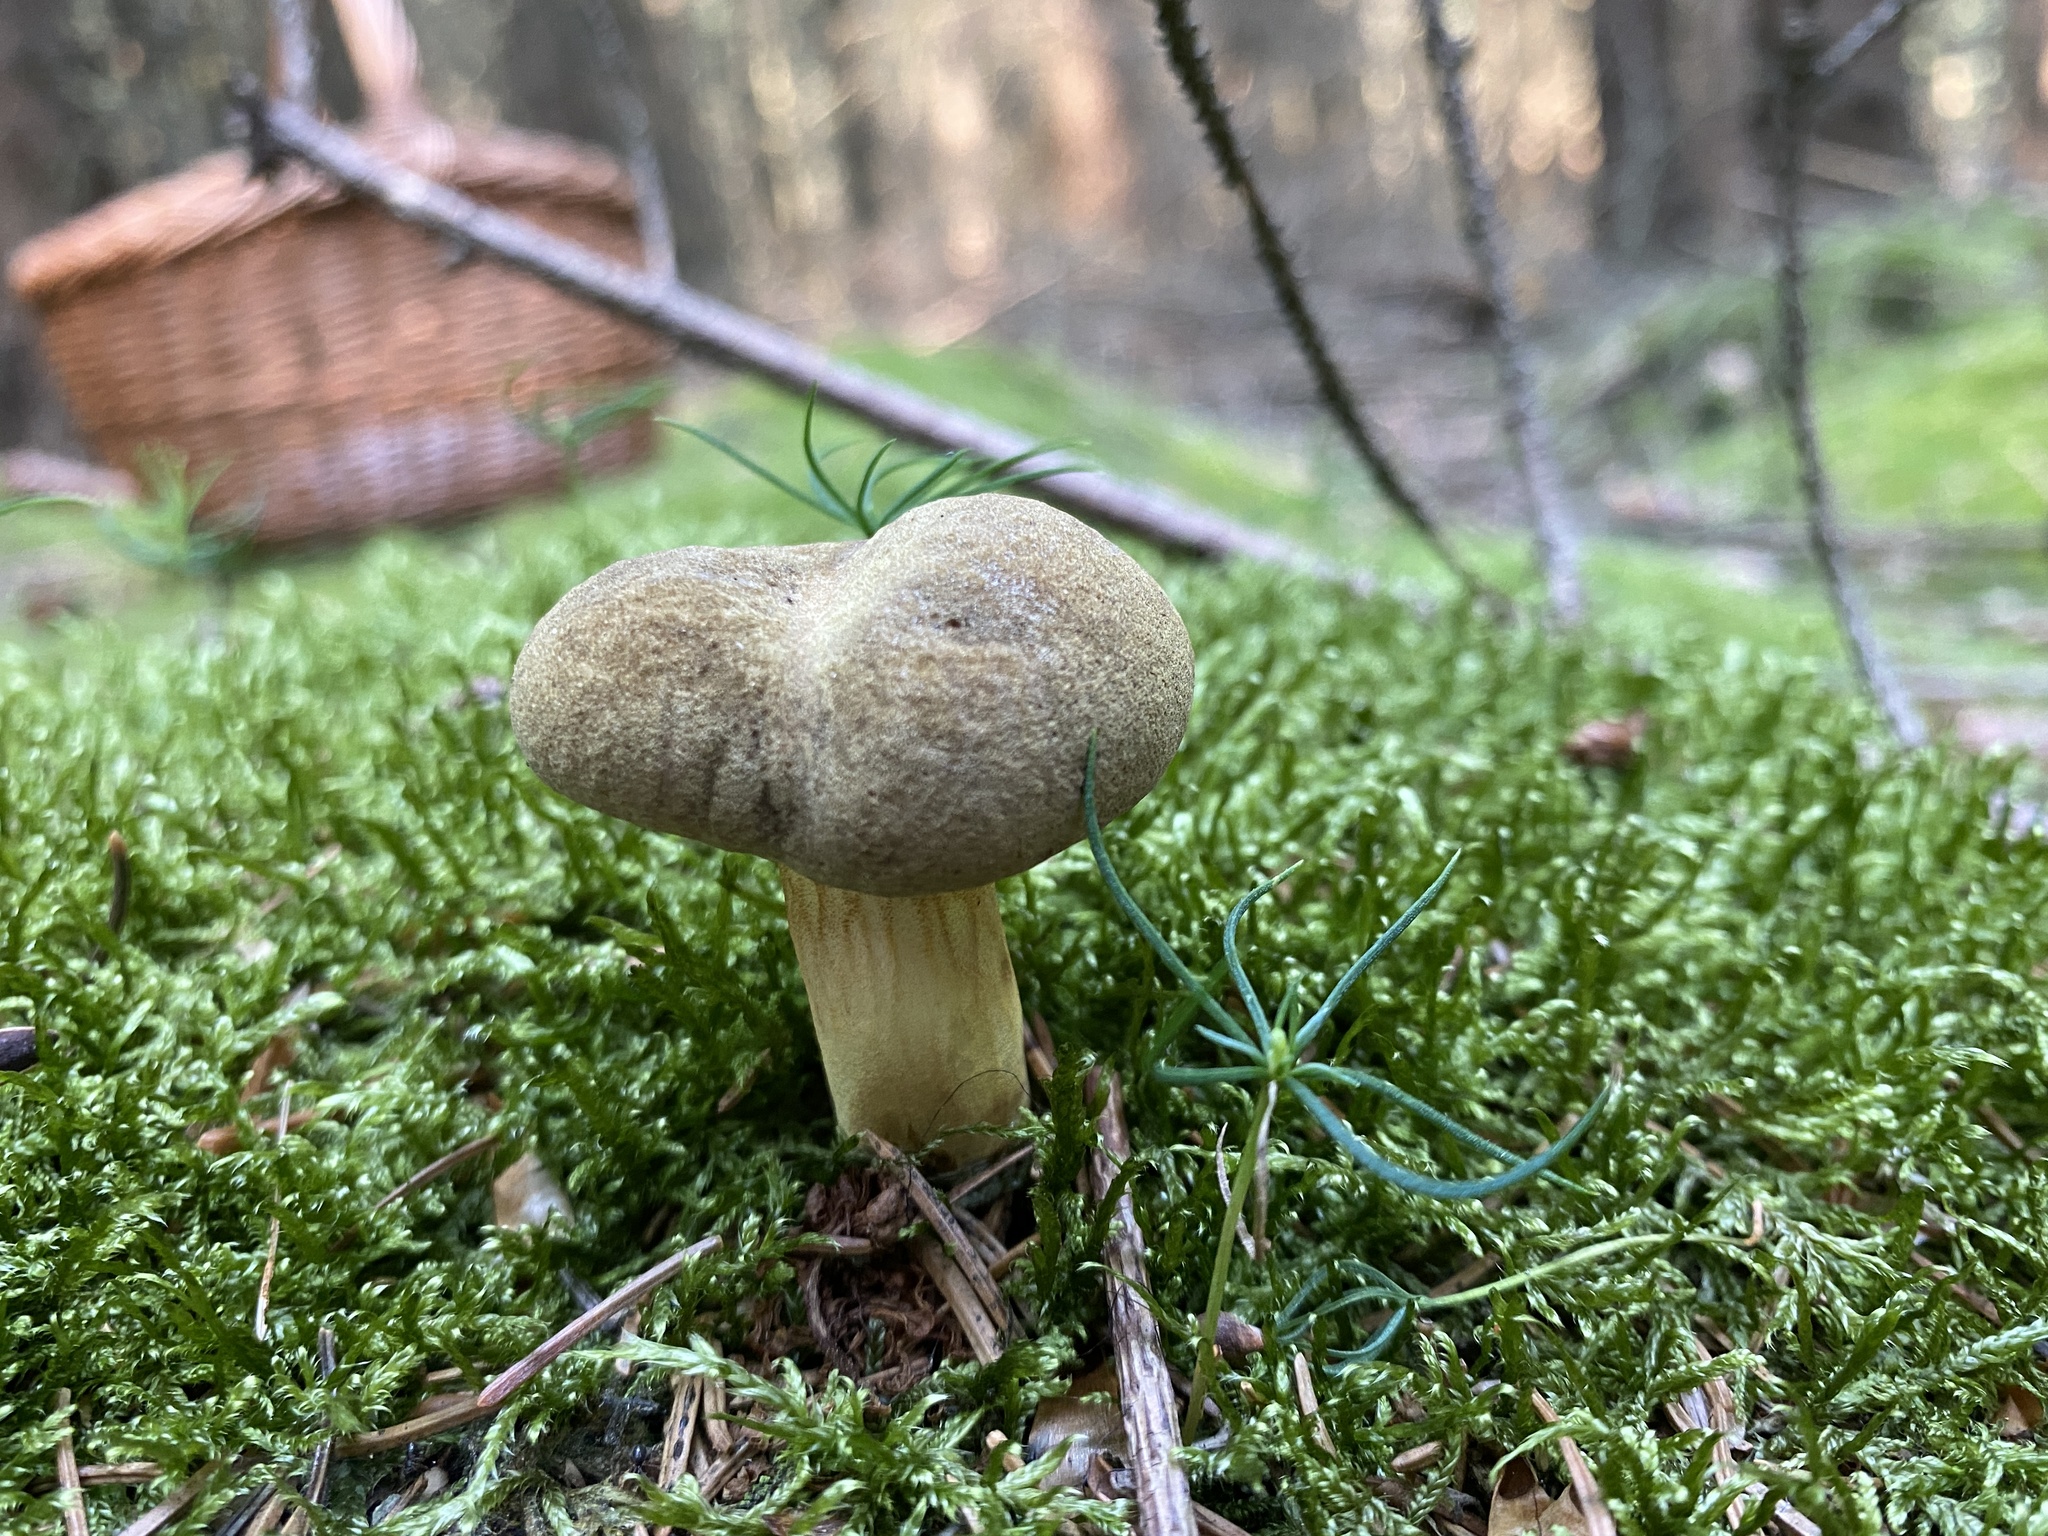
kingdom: Fungi
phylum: Basidiomycota
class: Agaricomycetes
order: Boletales
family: Boletaceae
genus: Xerocomus
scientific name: Xerocomus ferrugineus
